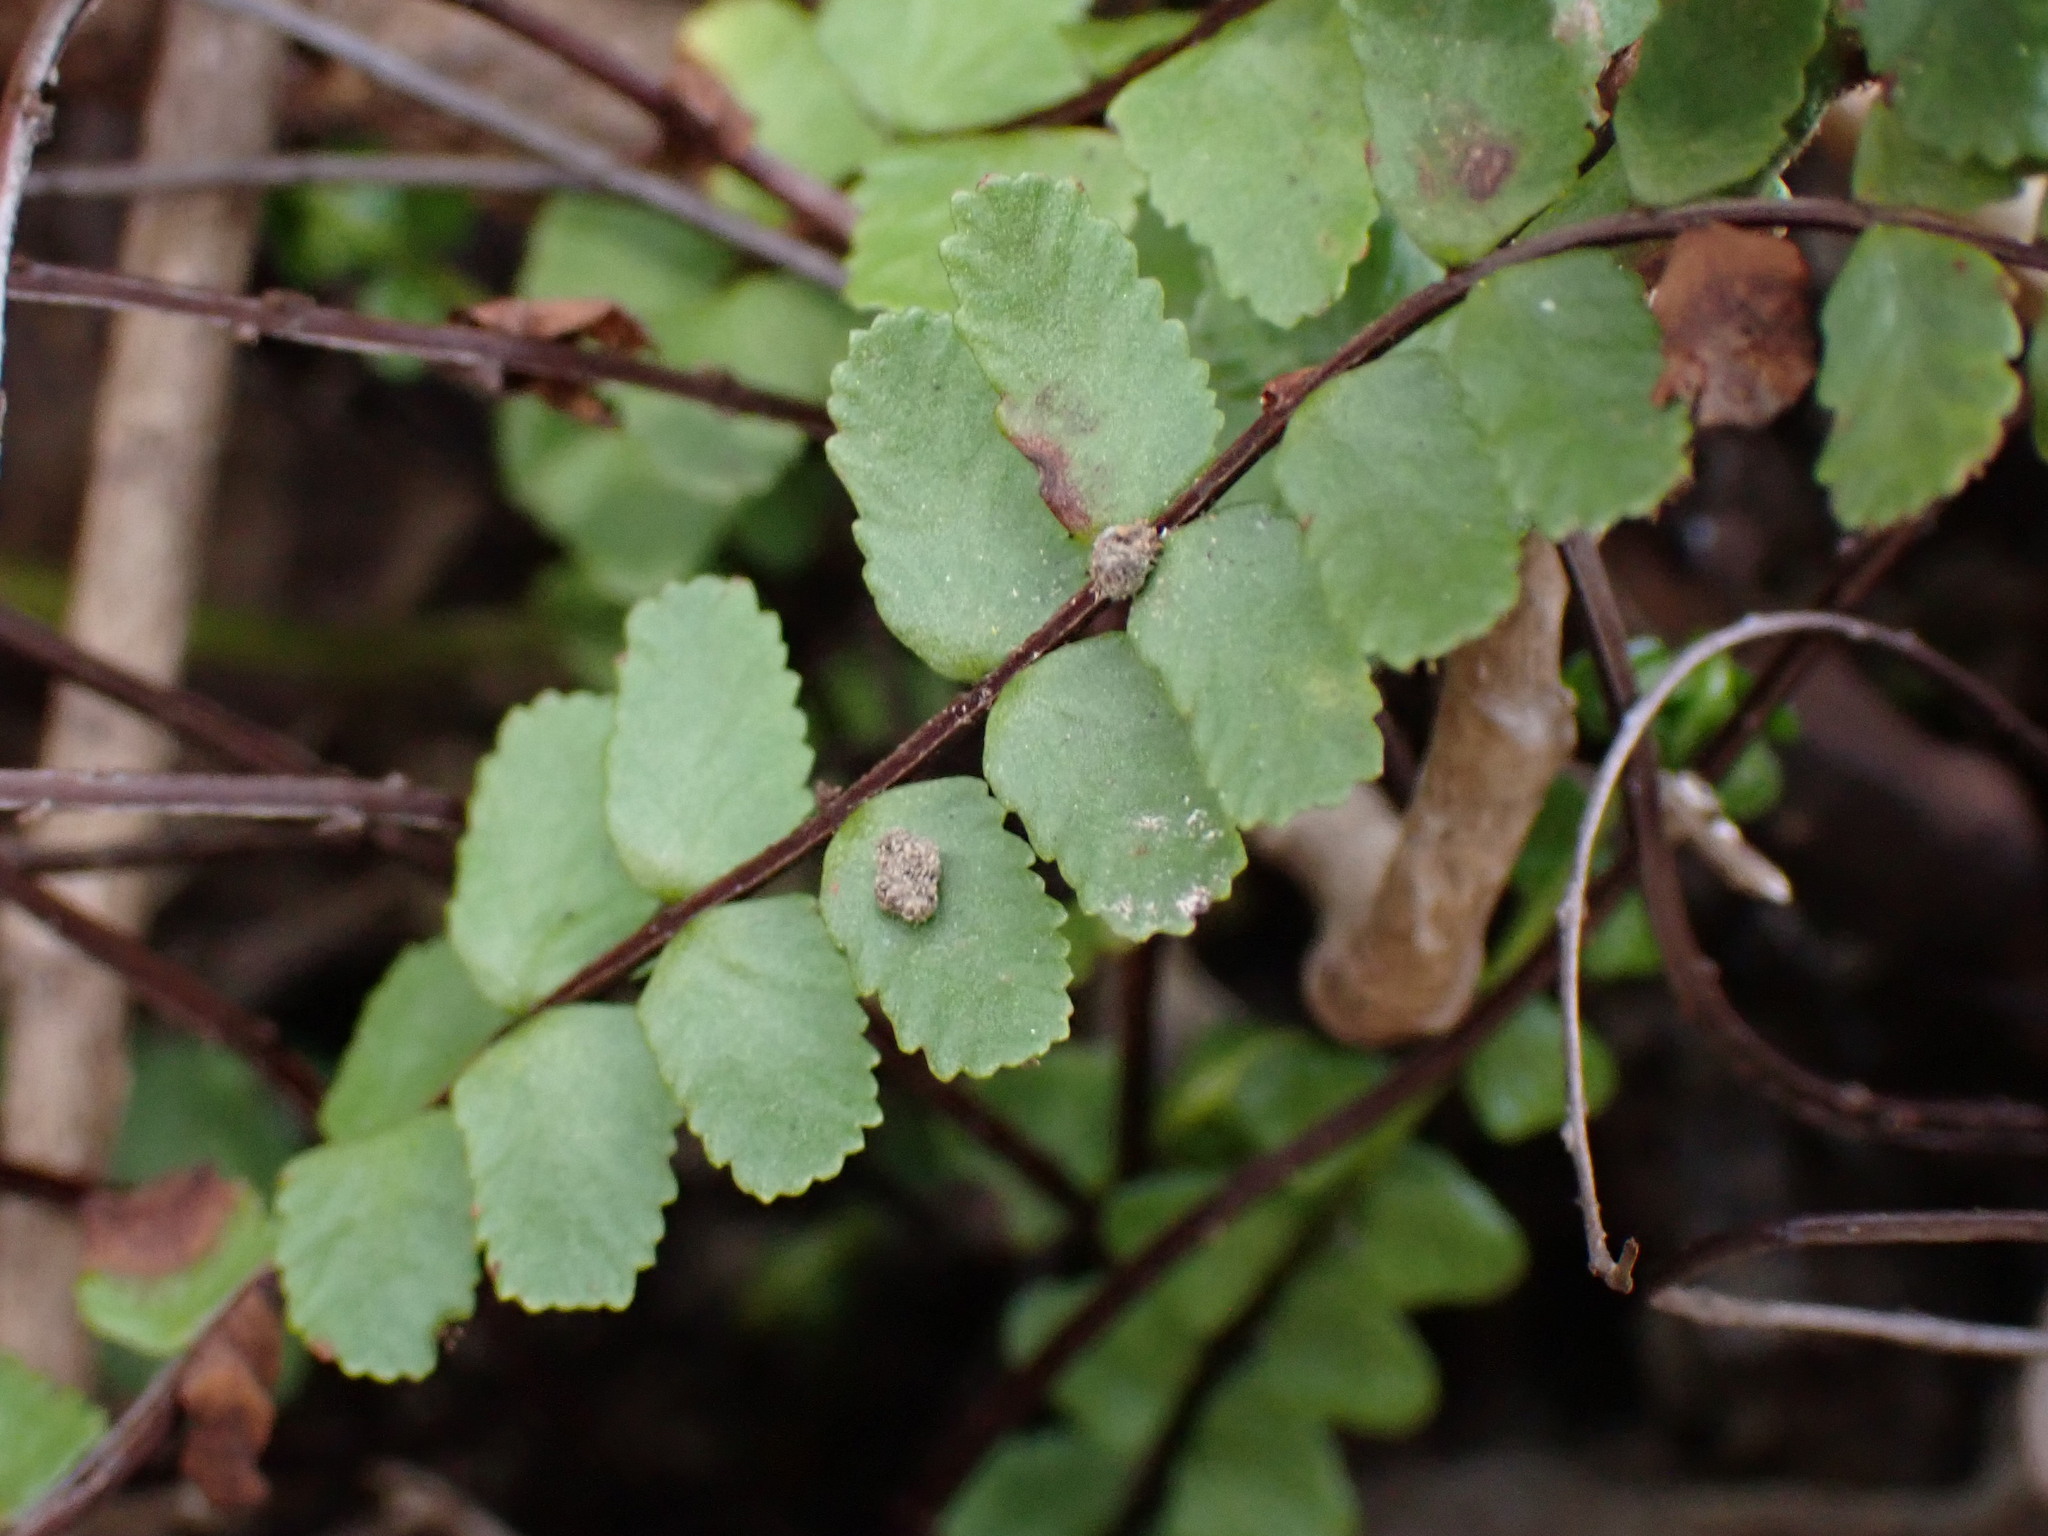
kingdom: Plantae
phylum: Tracheophyta
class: Polypodiopsida
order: Polypodiales
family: Aspleniaceae
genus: Asplenium
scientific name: Asplenium trichomanes
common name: Maidenhair spleenwort
